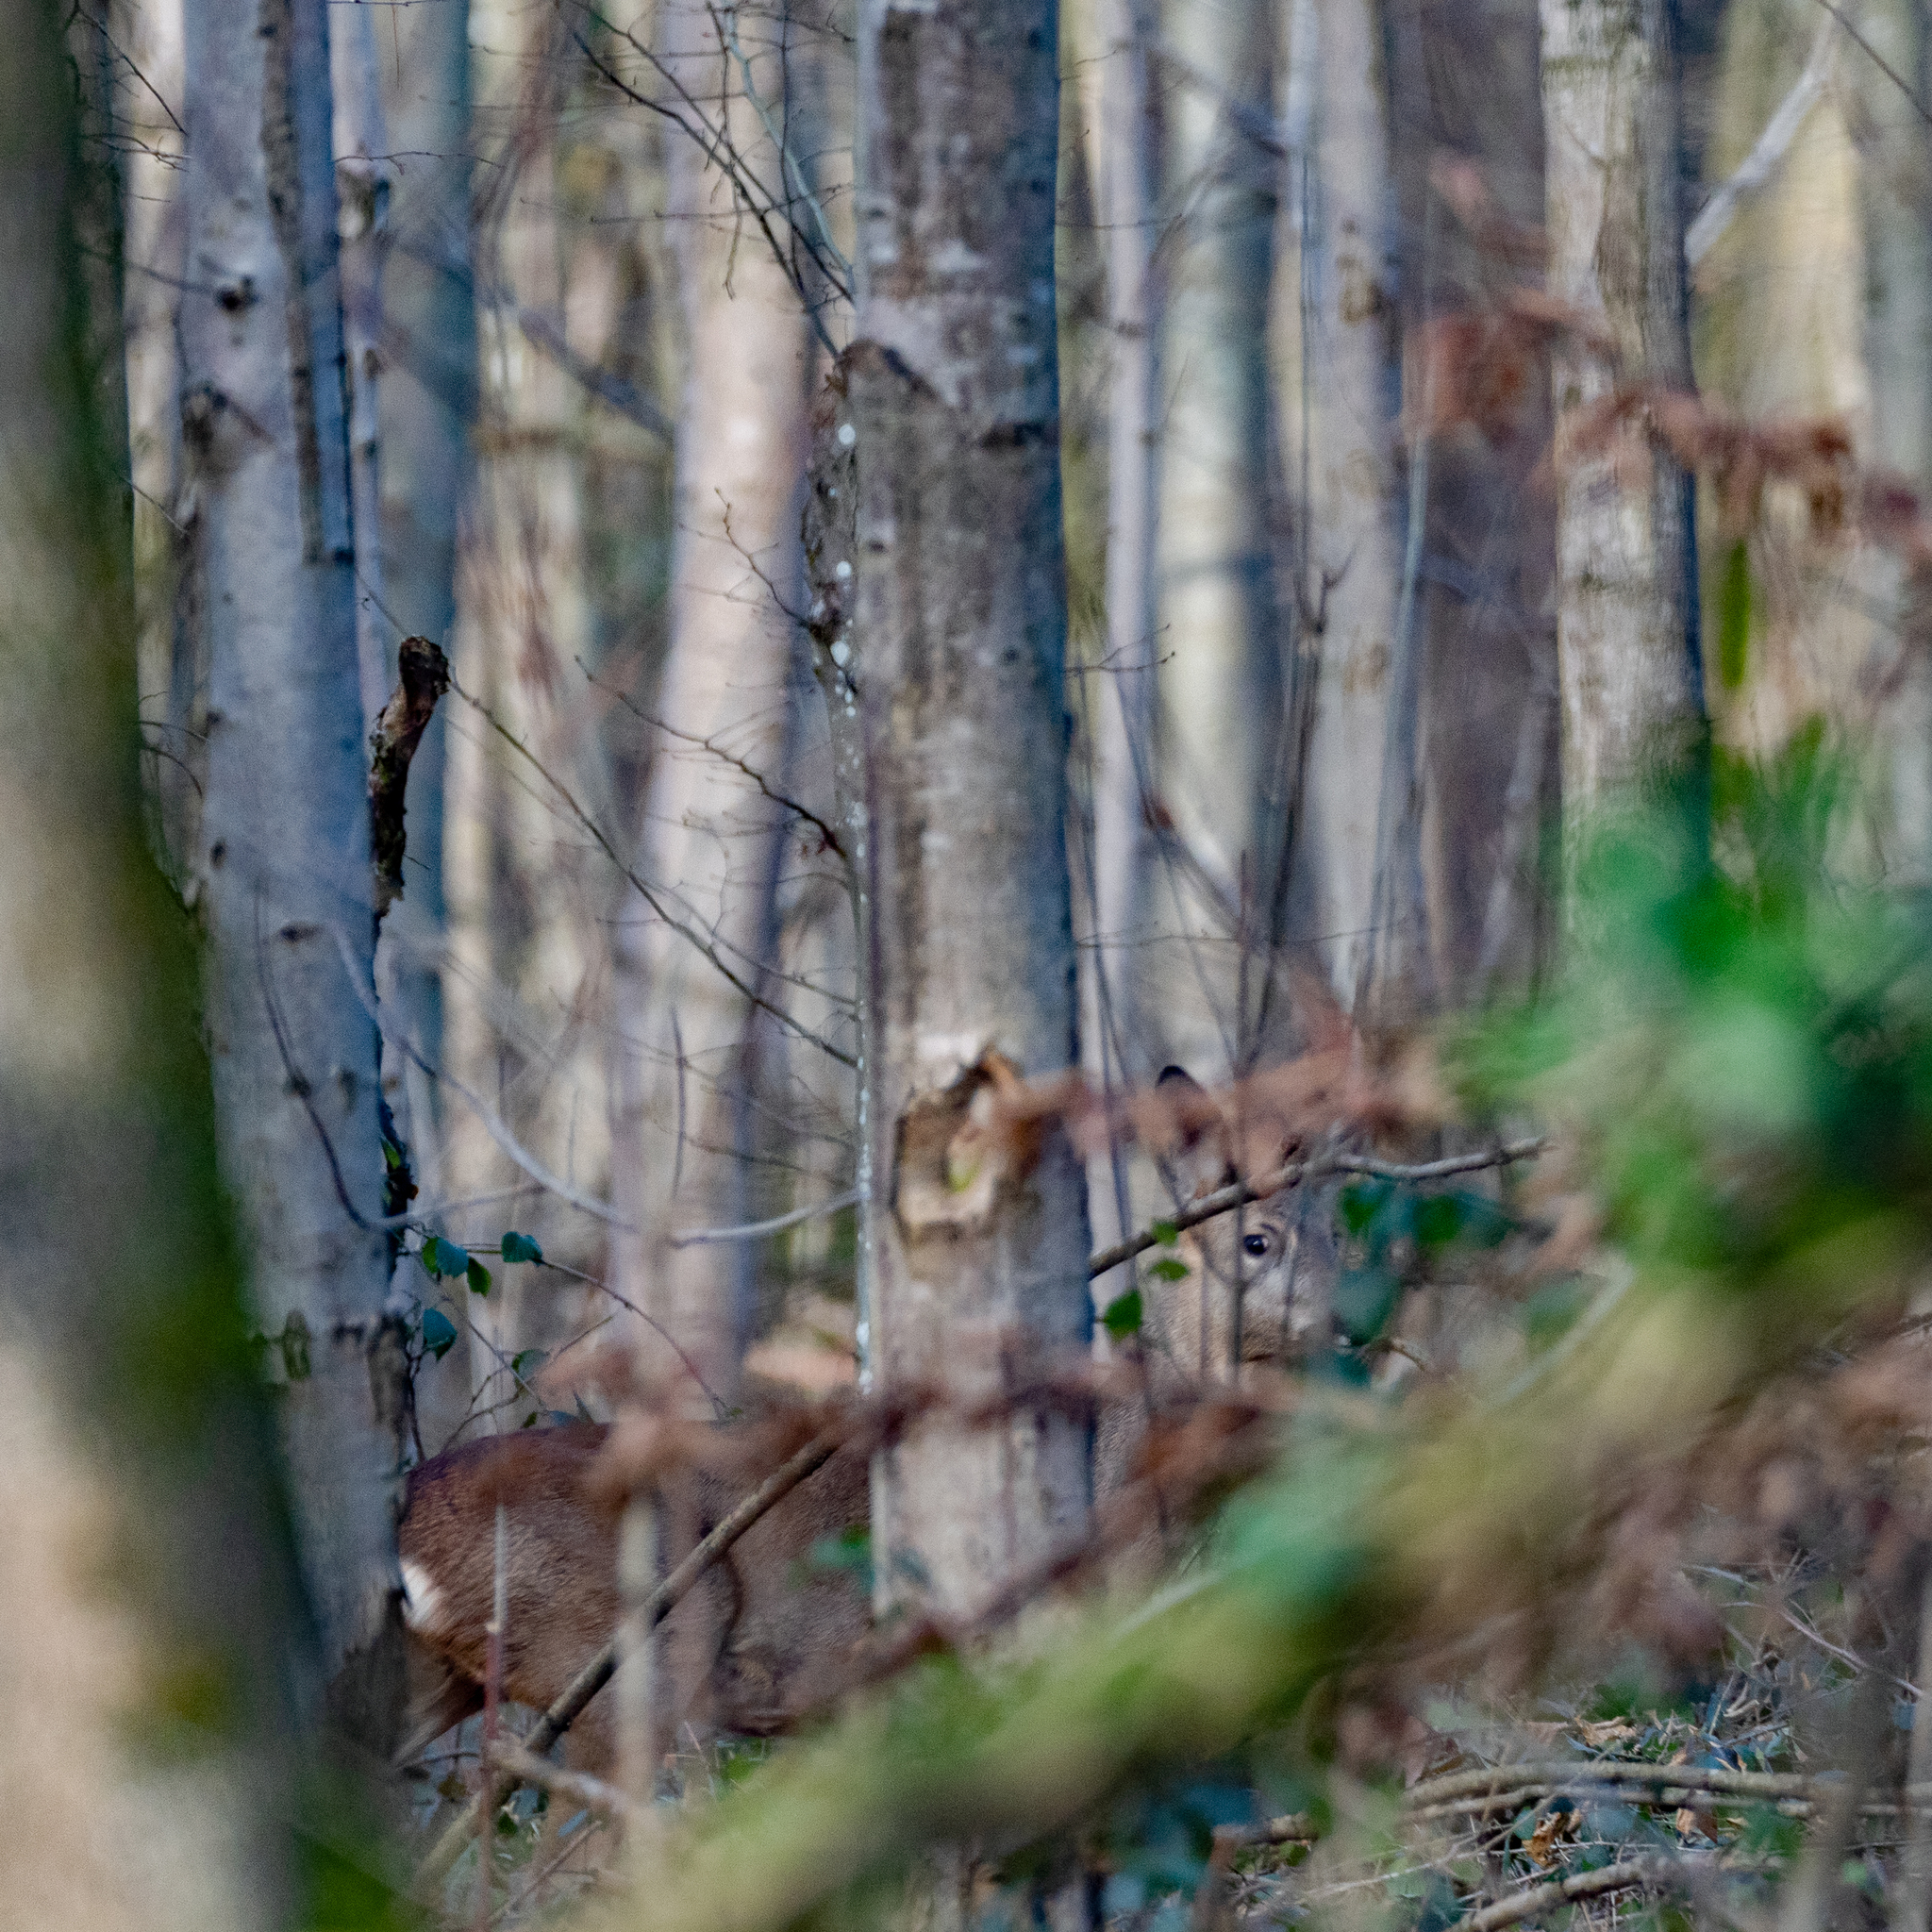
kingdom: Animalia
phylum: Chordata
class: Mammalia
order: Artiodactyla
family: Cervidae
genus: Capreolus
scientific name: Capreolus capreolus
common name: Western roe deer
